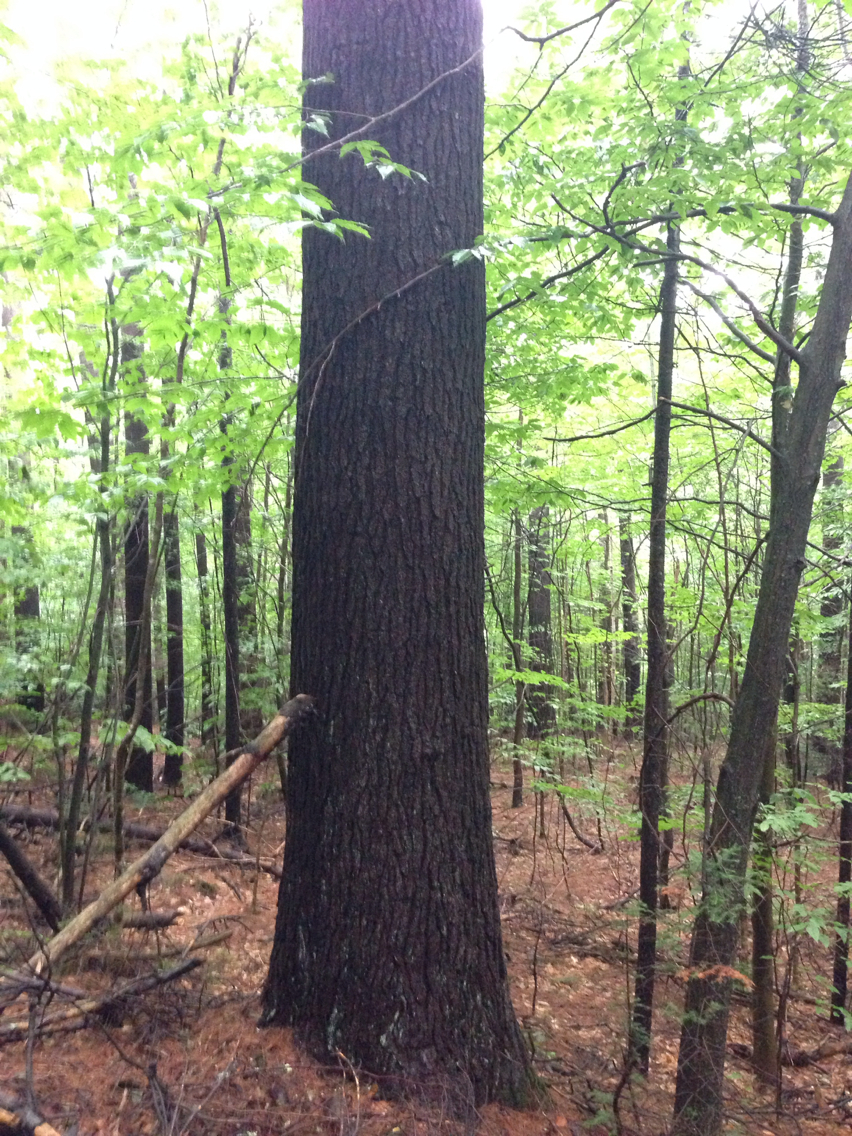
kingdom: Plantae
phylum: Tracheophyta
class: Pinopsida
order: Pinales
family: Pinaceae
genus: Pinus
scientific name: Pinus strobus
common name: Weymouth pine
